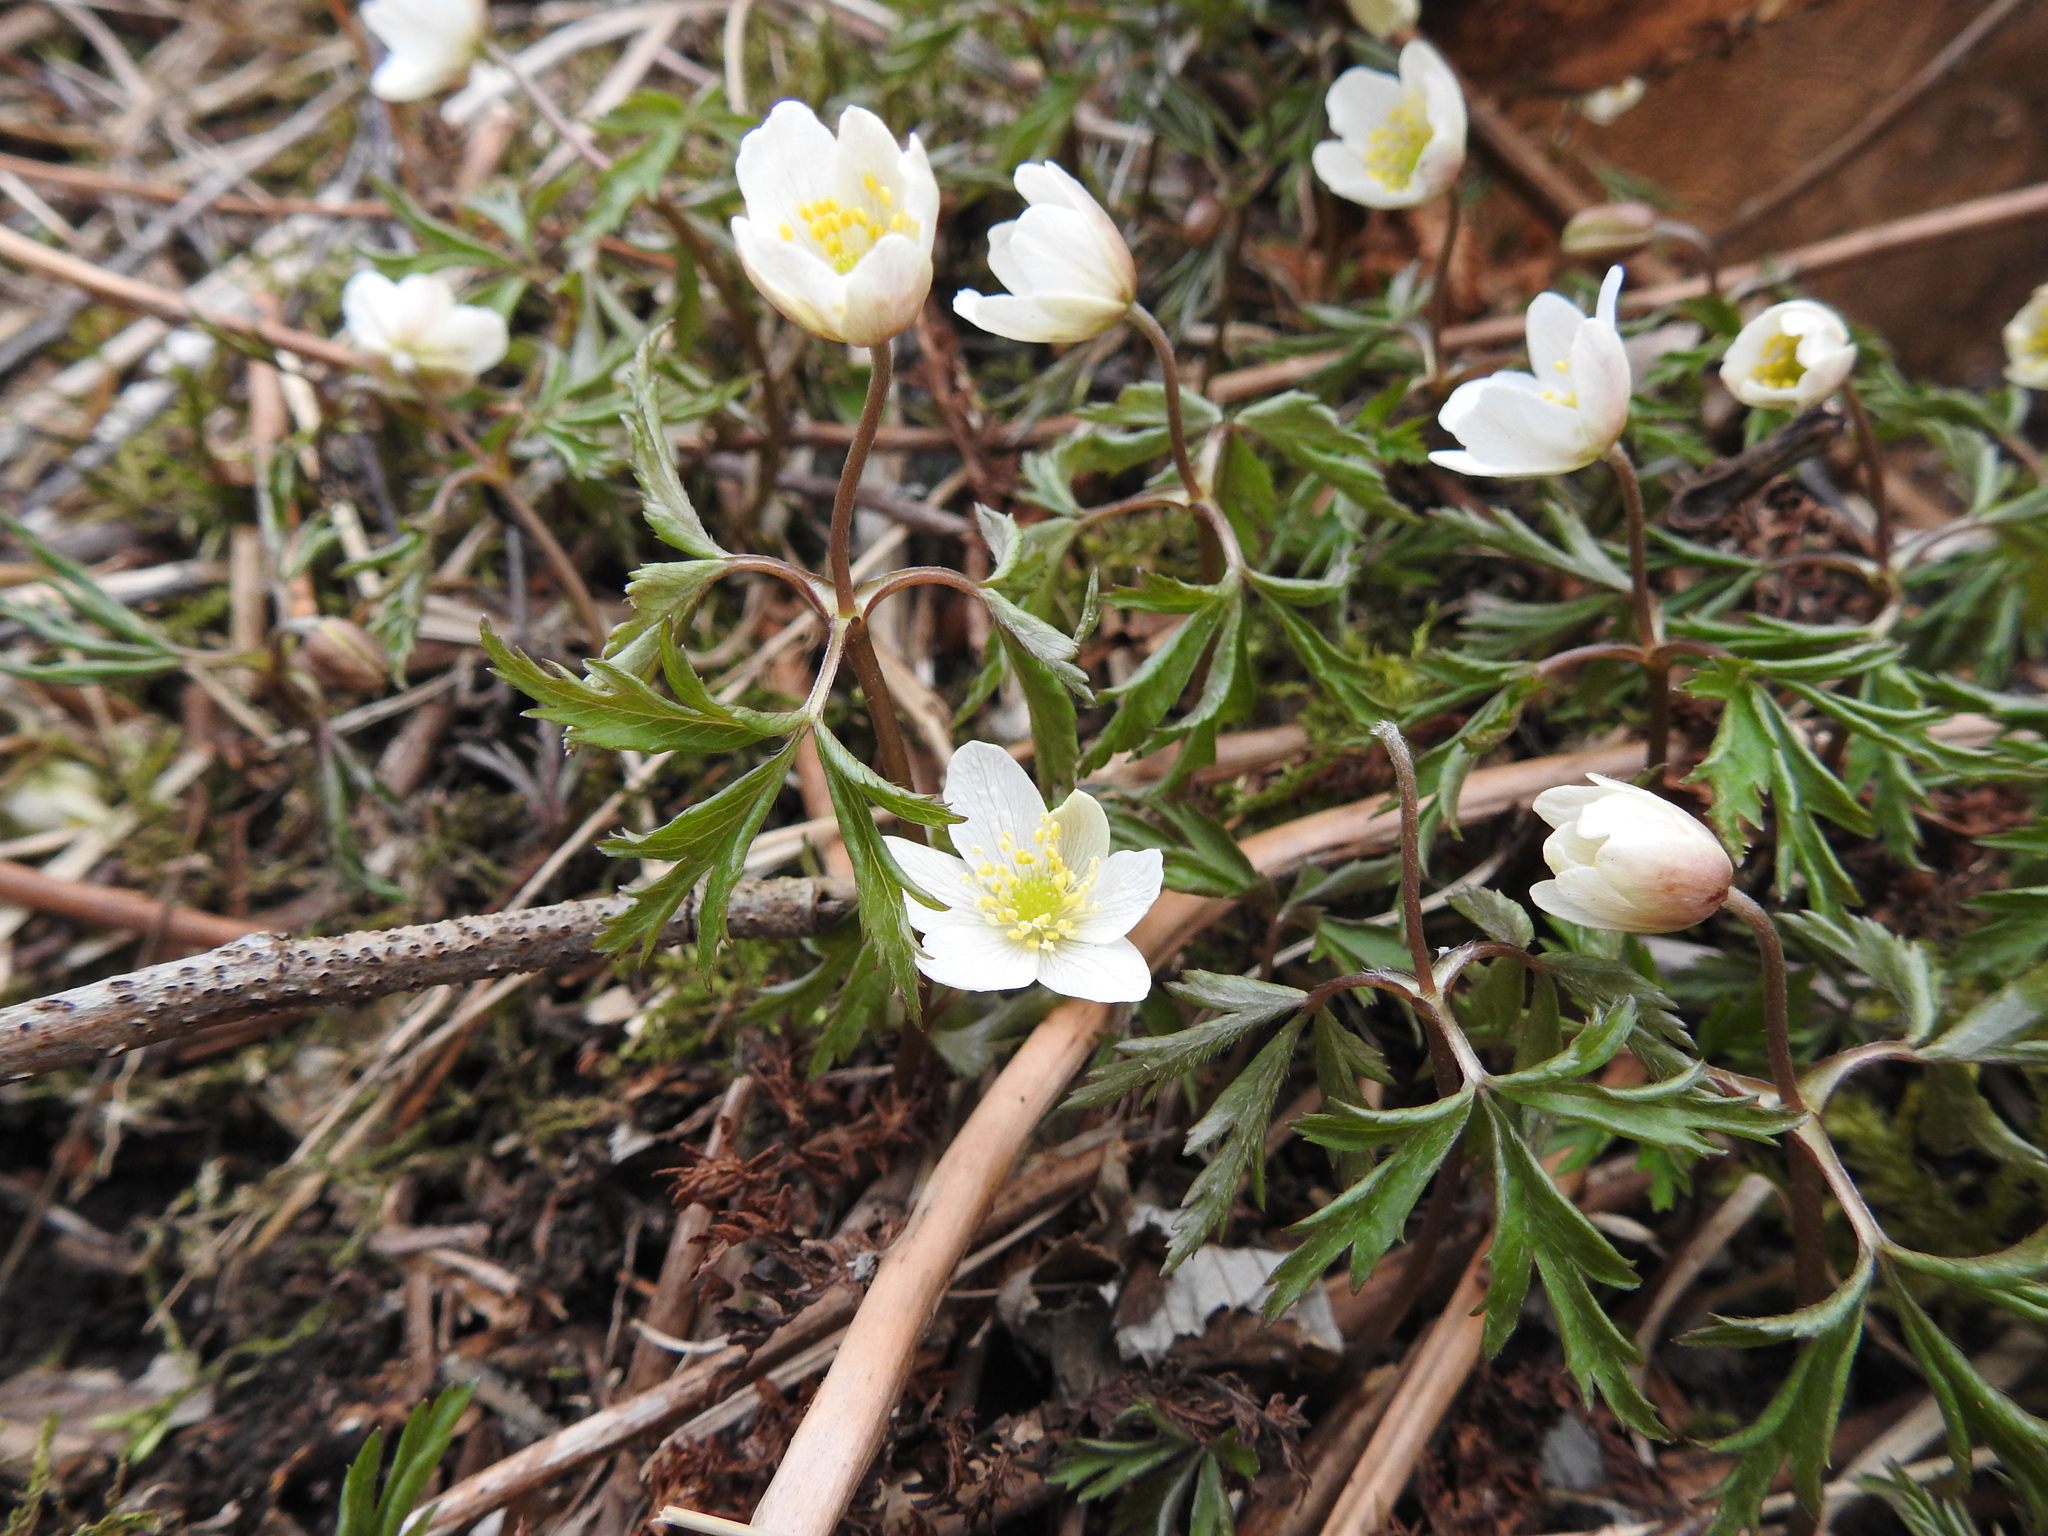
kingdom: Plantae
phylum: Tracheophyta
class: Magnoliopsida
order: Ranunculales
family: Ranunculaceae
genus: Anemone
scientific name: Anemone nemorosa
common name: Wood anemone
